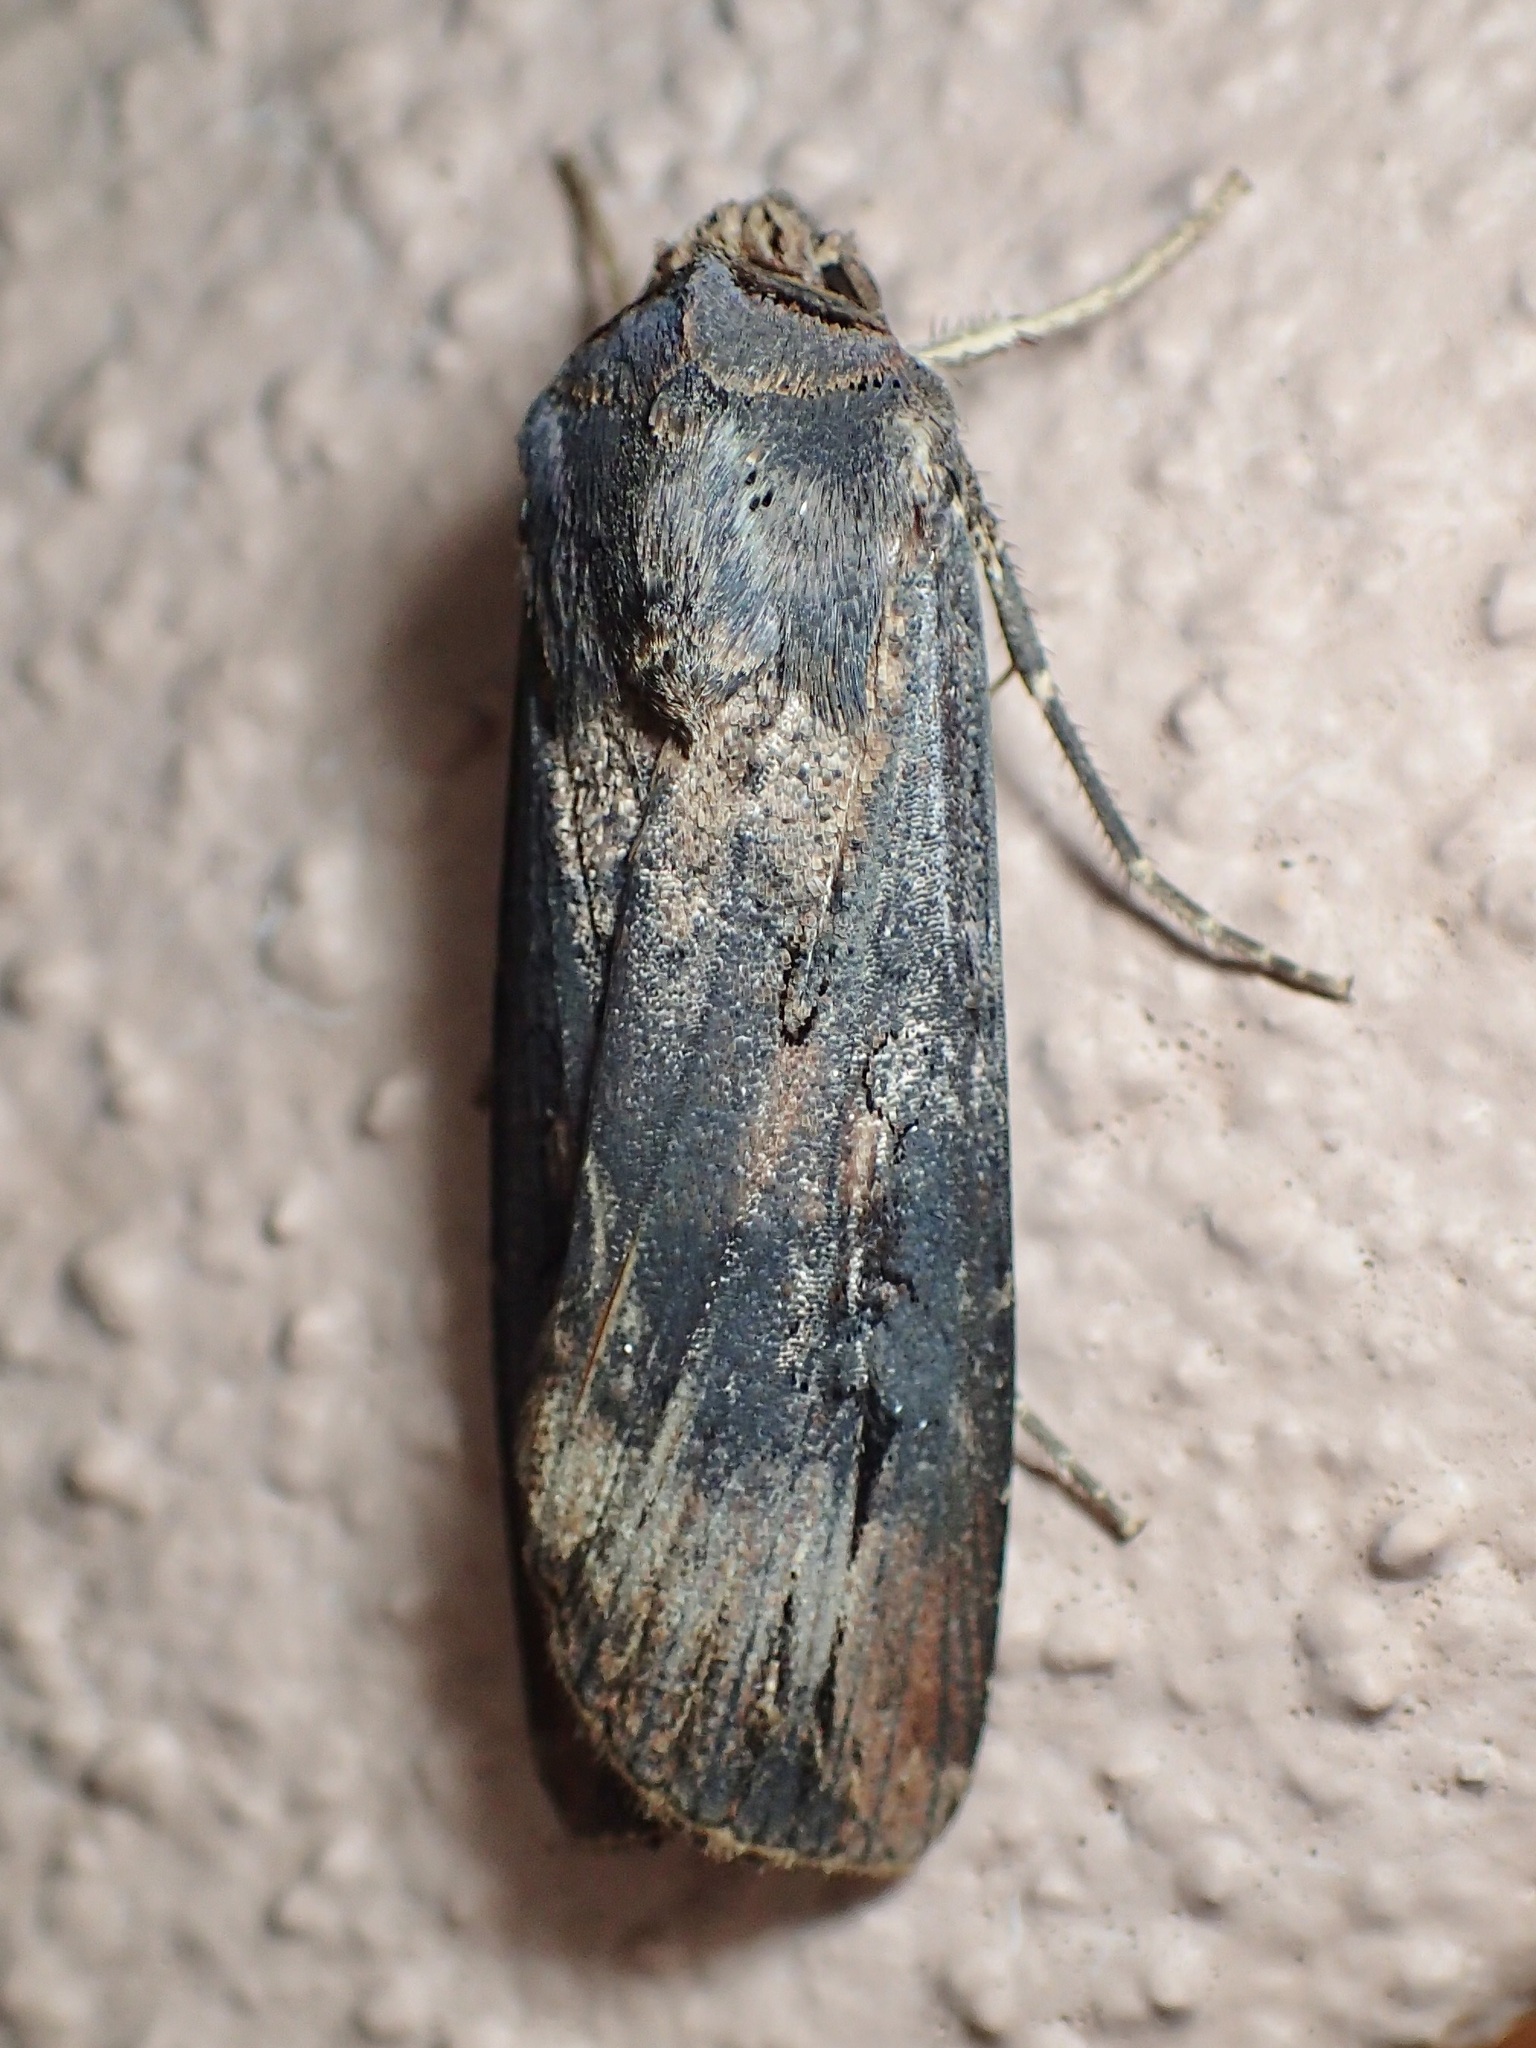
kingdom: Animalia
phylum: Arthropoda
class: Insecta
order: Lepidoptera
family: Noctuidae
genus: Agrotis
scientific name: Agrotis ipsilon
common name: Dark sword-grass
